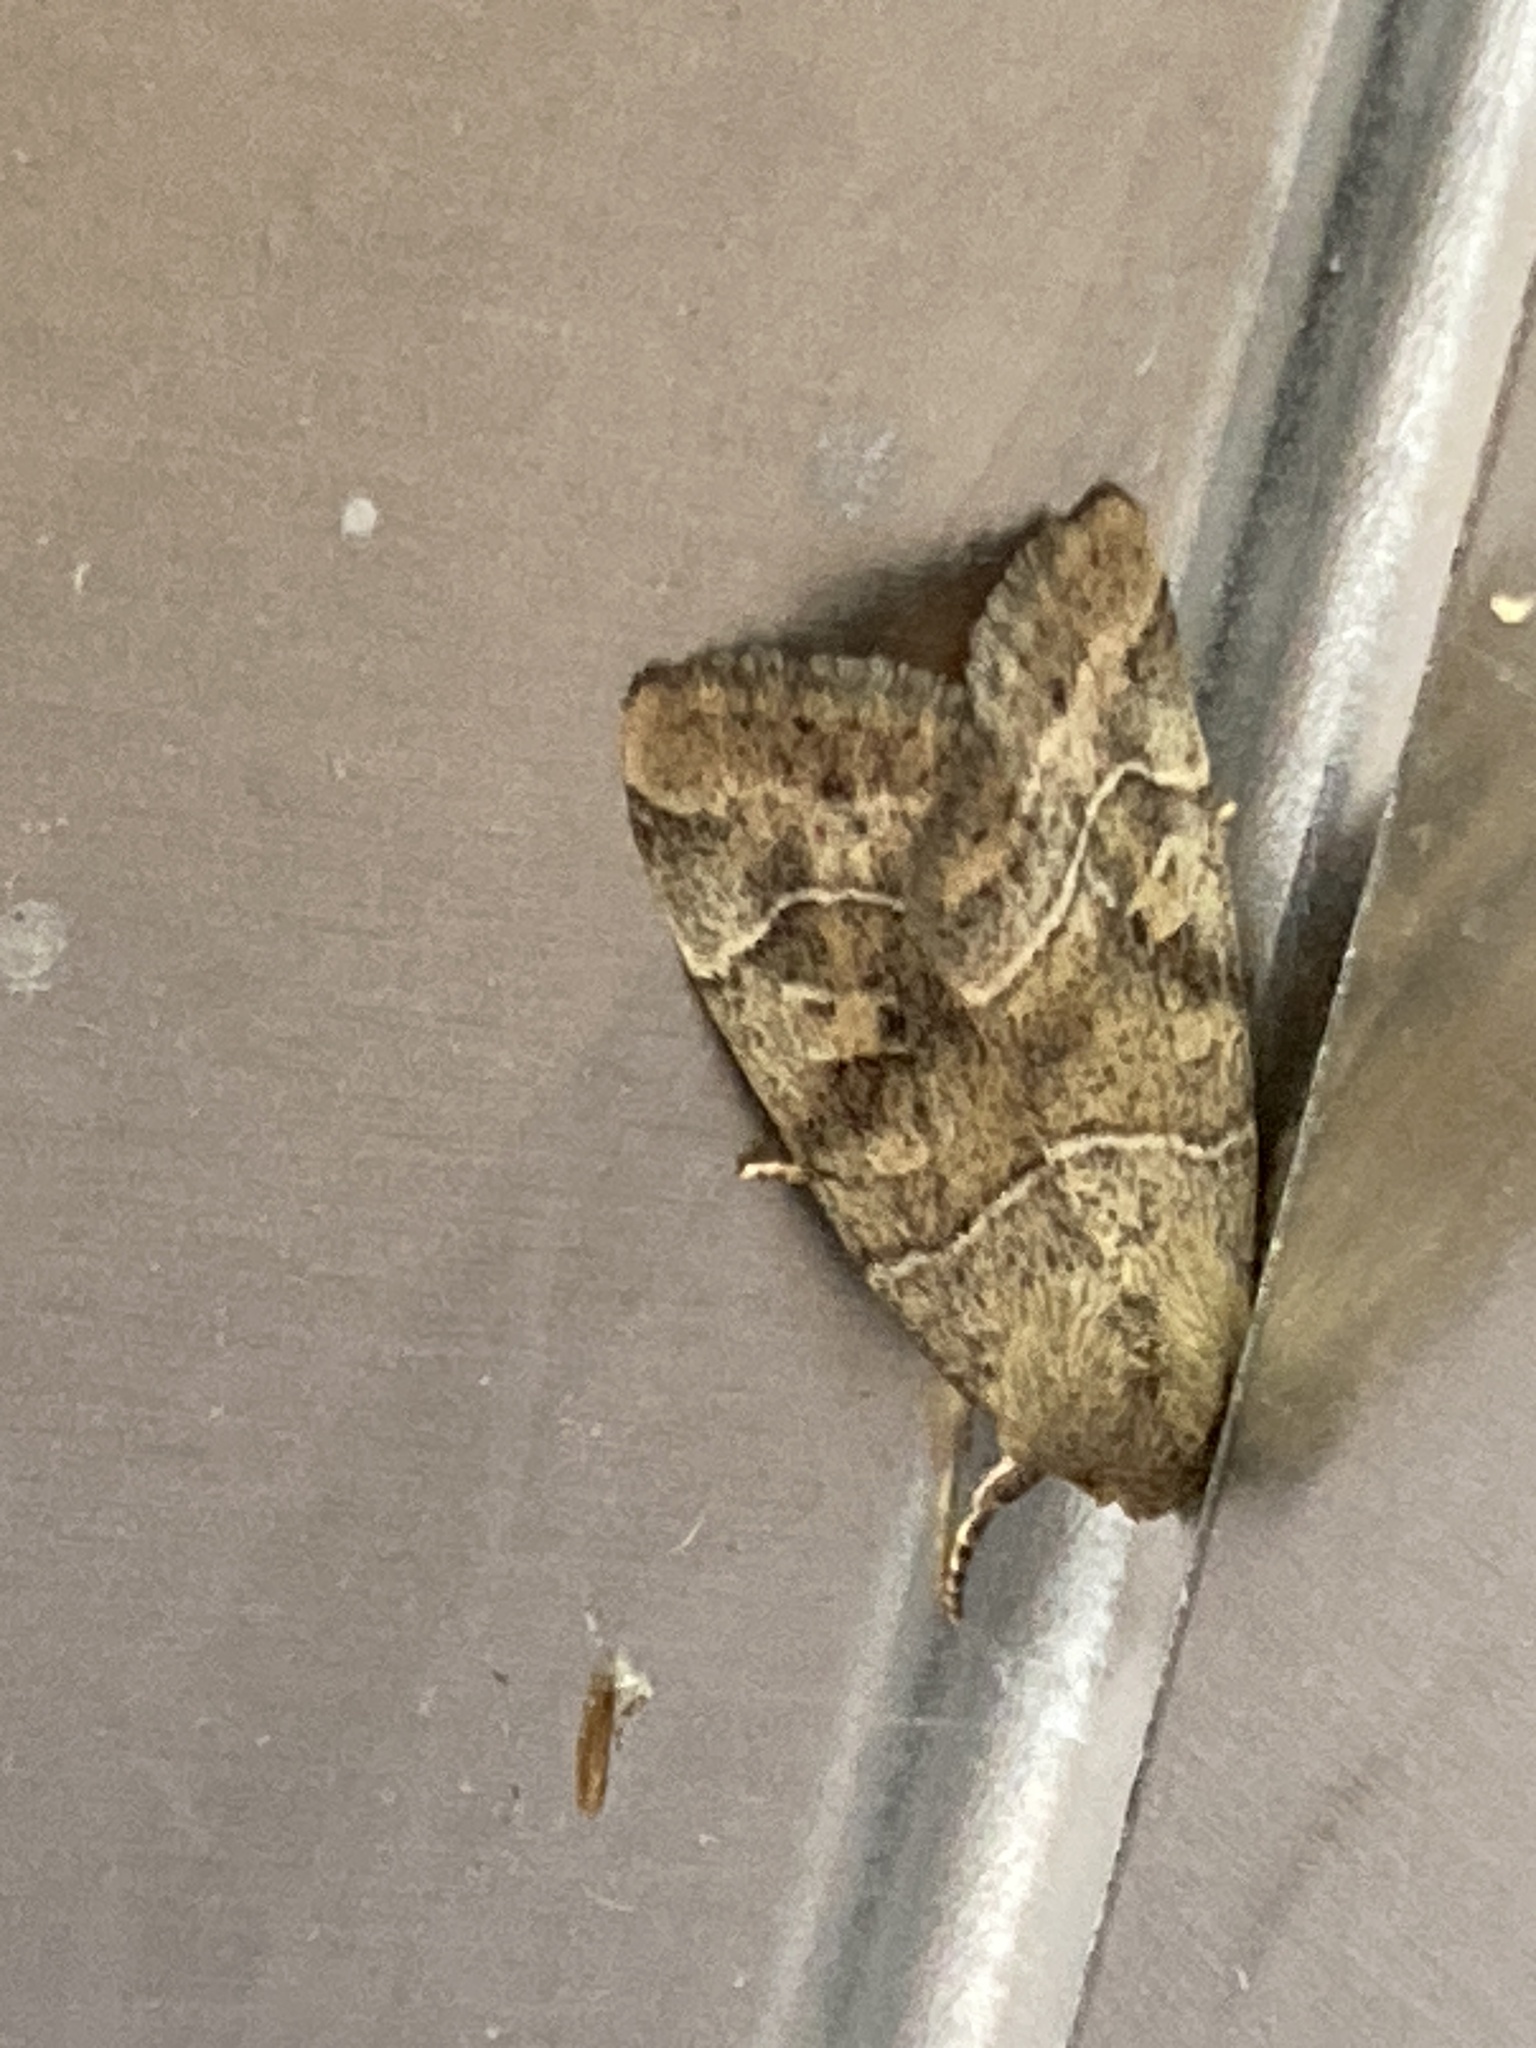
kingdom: Animalia
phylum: Arthropoda
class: Insecta
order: Lepidoptera
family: Noctuidae
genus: Cosmia
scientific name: Cosmia trapezina
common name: Dun-bar
